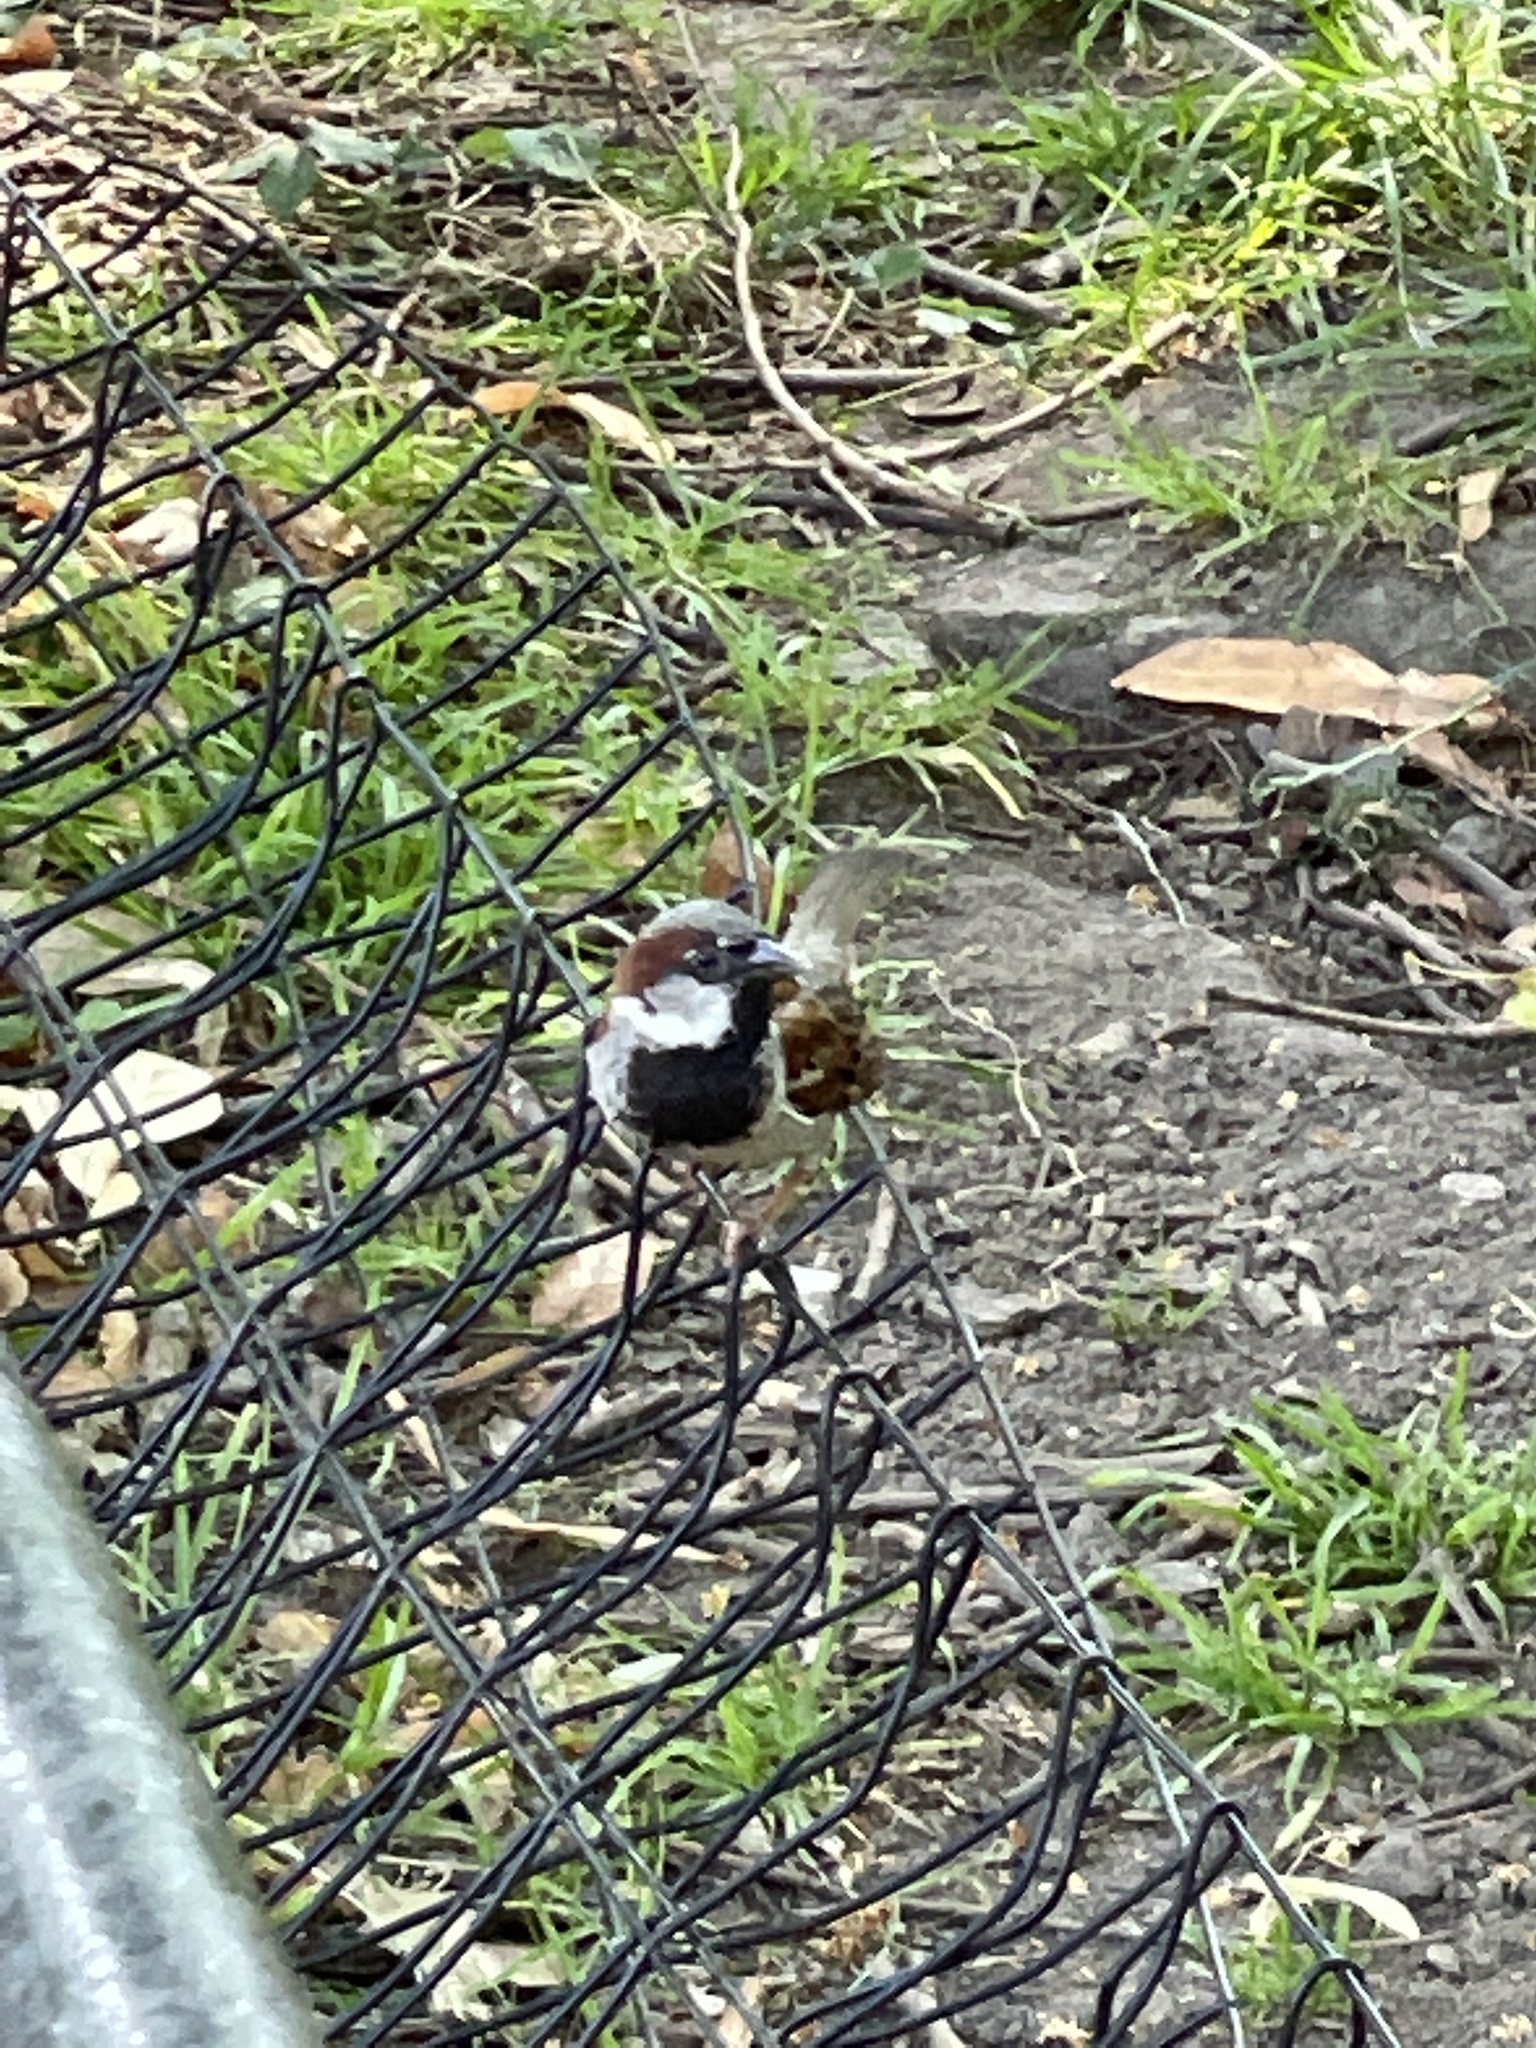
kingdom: Animalia
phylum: Chordata
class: Aves
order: Passeriformes
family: Passeridae
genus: Passer
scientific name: Passer domesticus
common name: House sparrow
